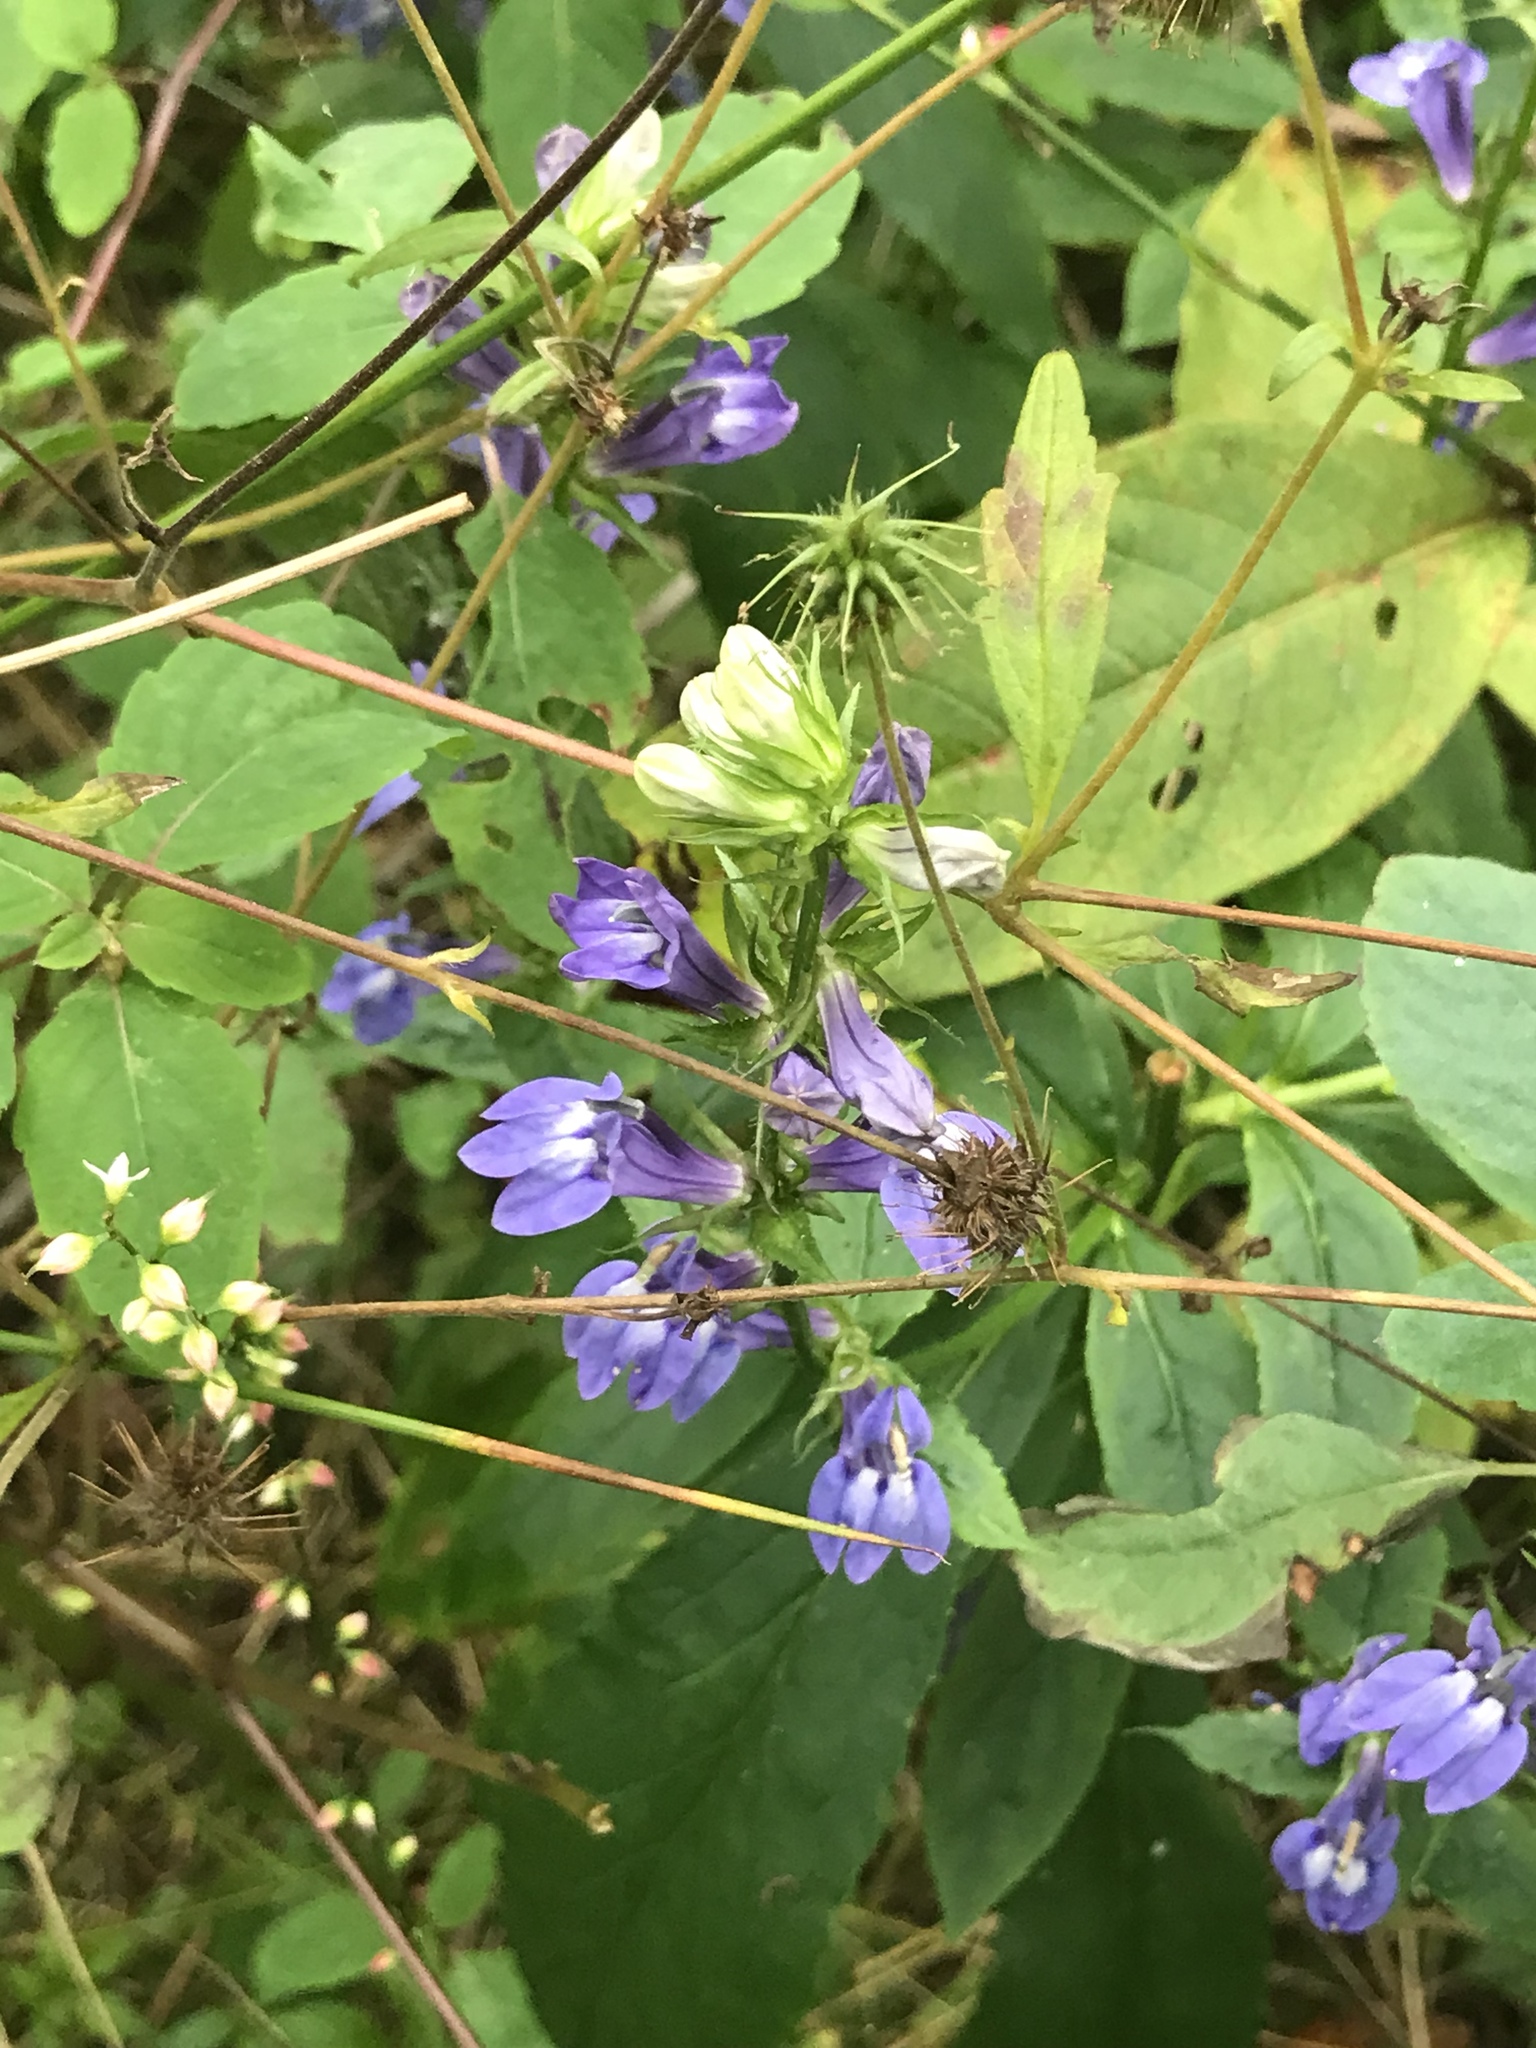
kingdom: Plantae
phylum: Tracheophyta
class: Magnoliopsida
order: Asterales
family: Campanulaceae
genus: Lobelia
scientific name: Lobelia siphilitica
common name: Great lobelia
